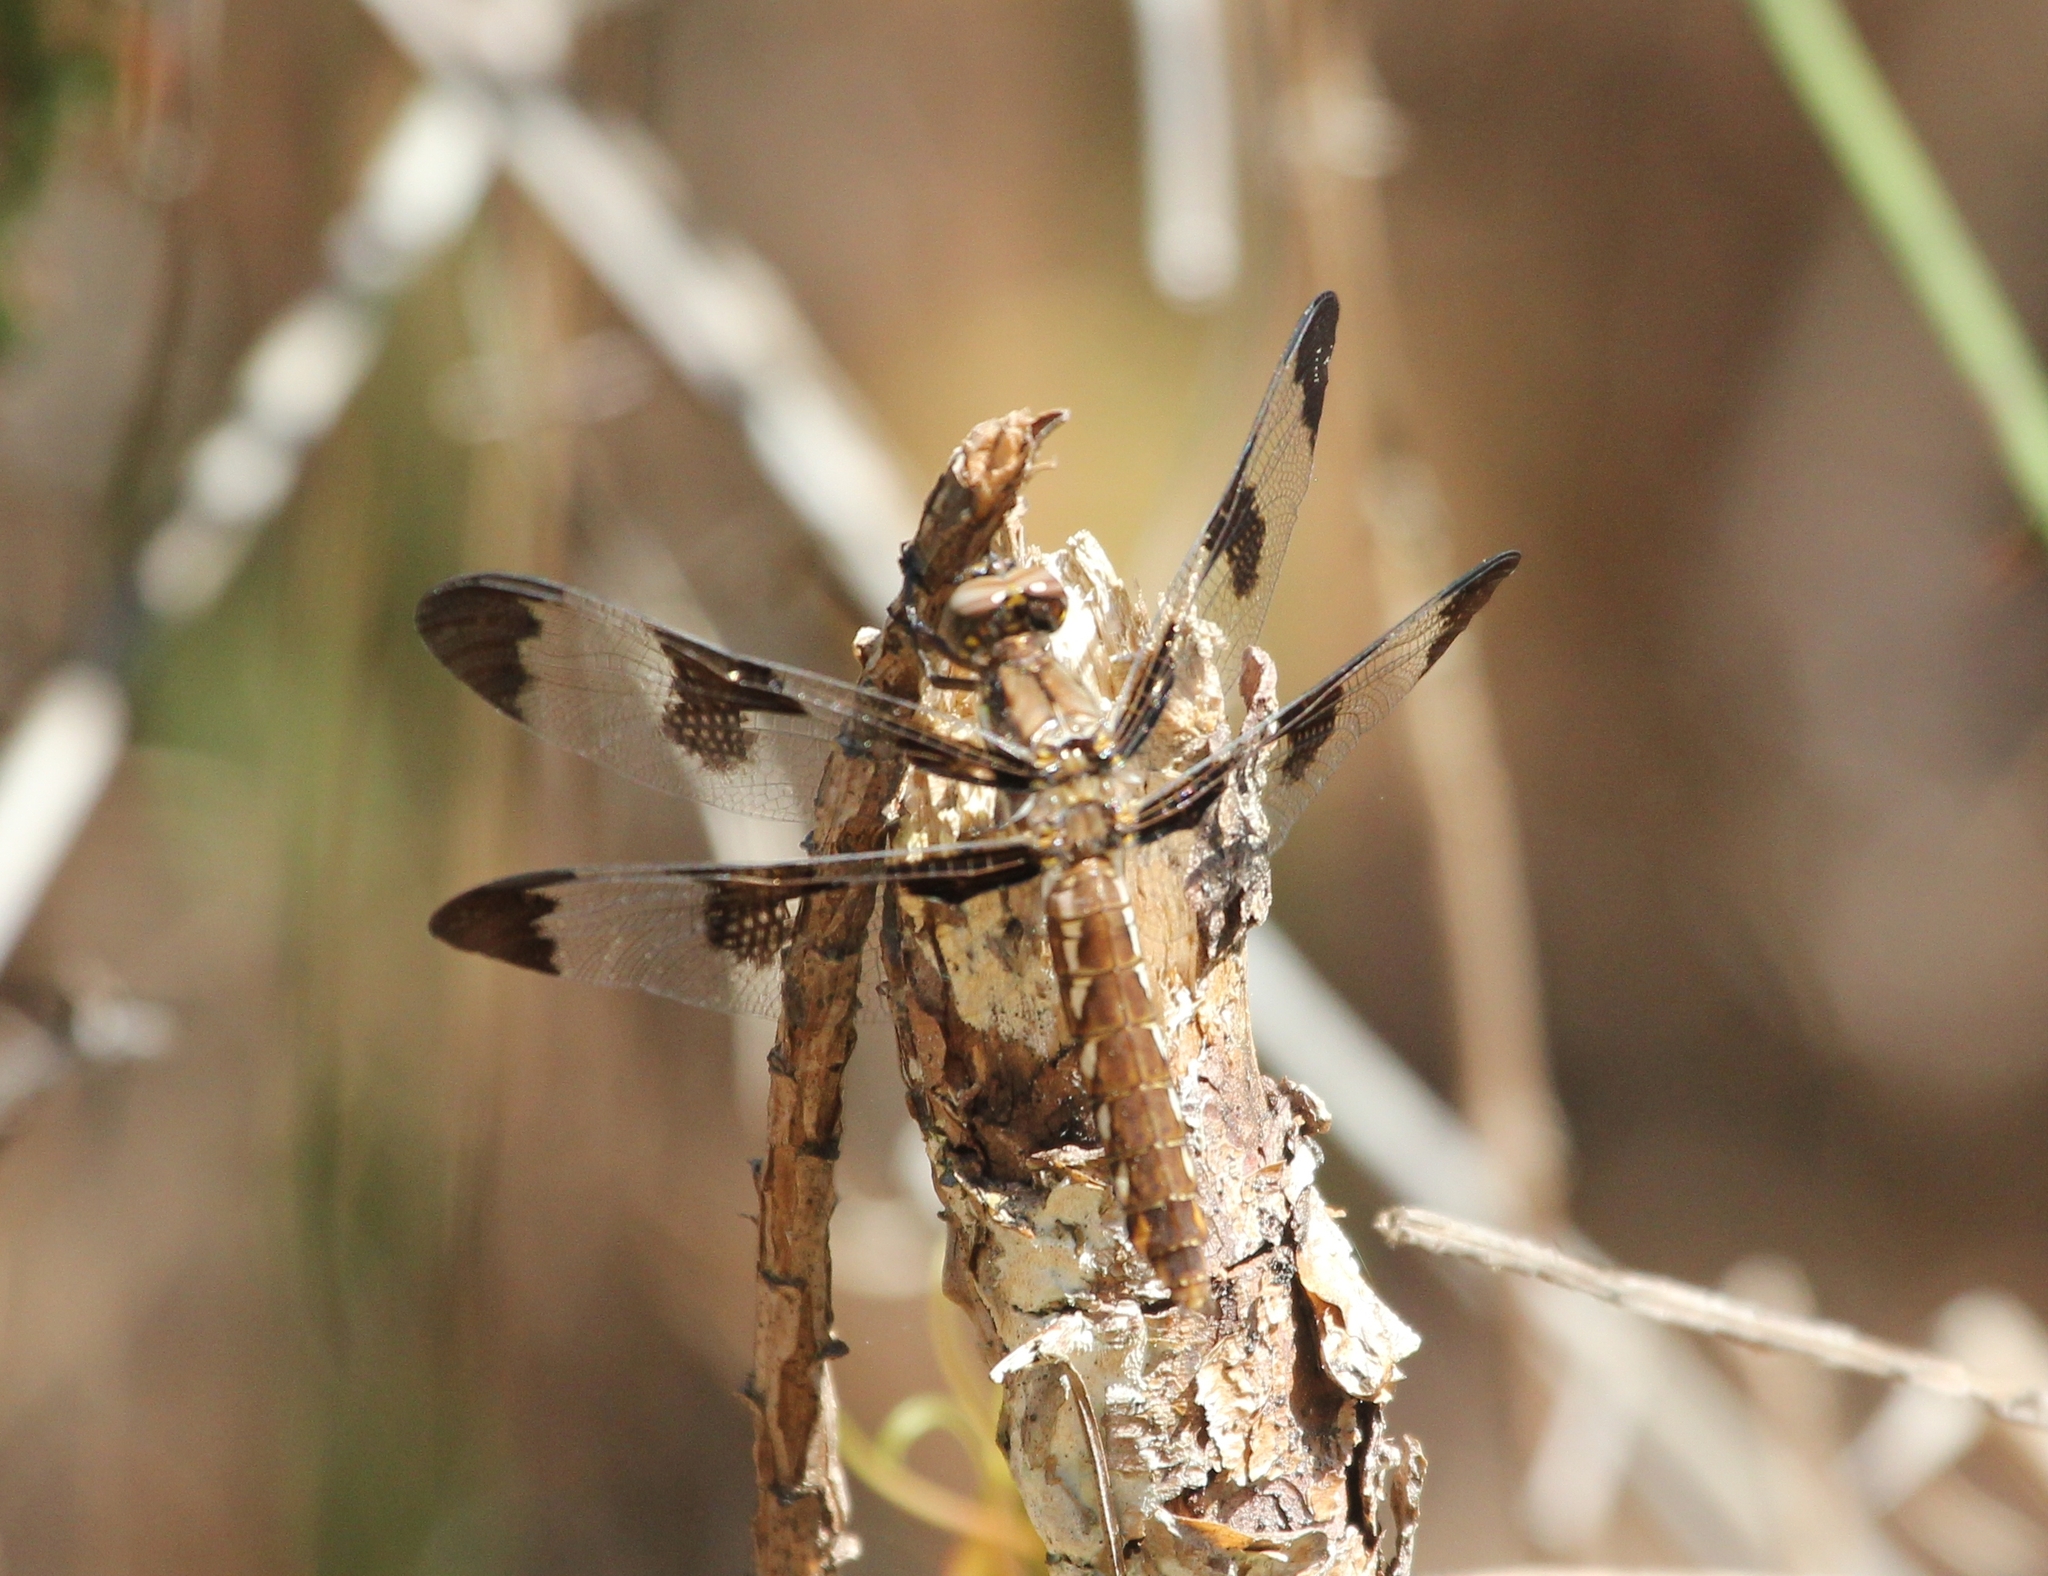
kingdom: Animalia
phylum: Arthropoda
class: Insecta
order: Odonata
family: Libellulidae
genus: Plathemis
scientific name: Plathemis lydia
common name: Common whitetail
